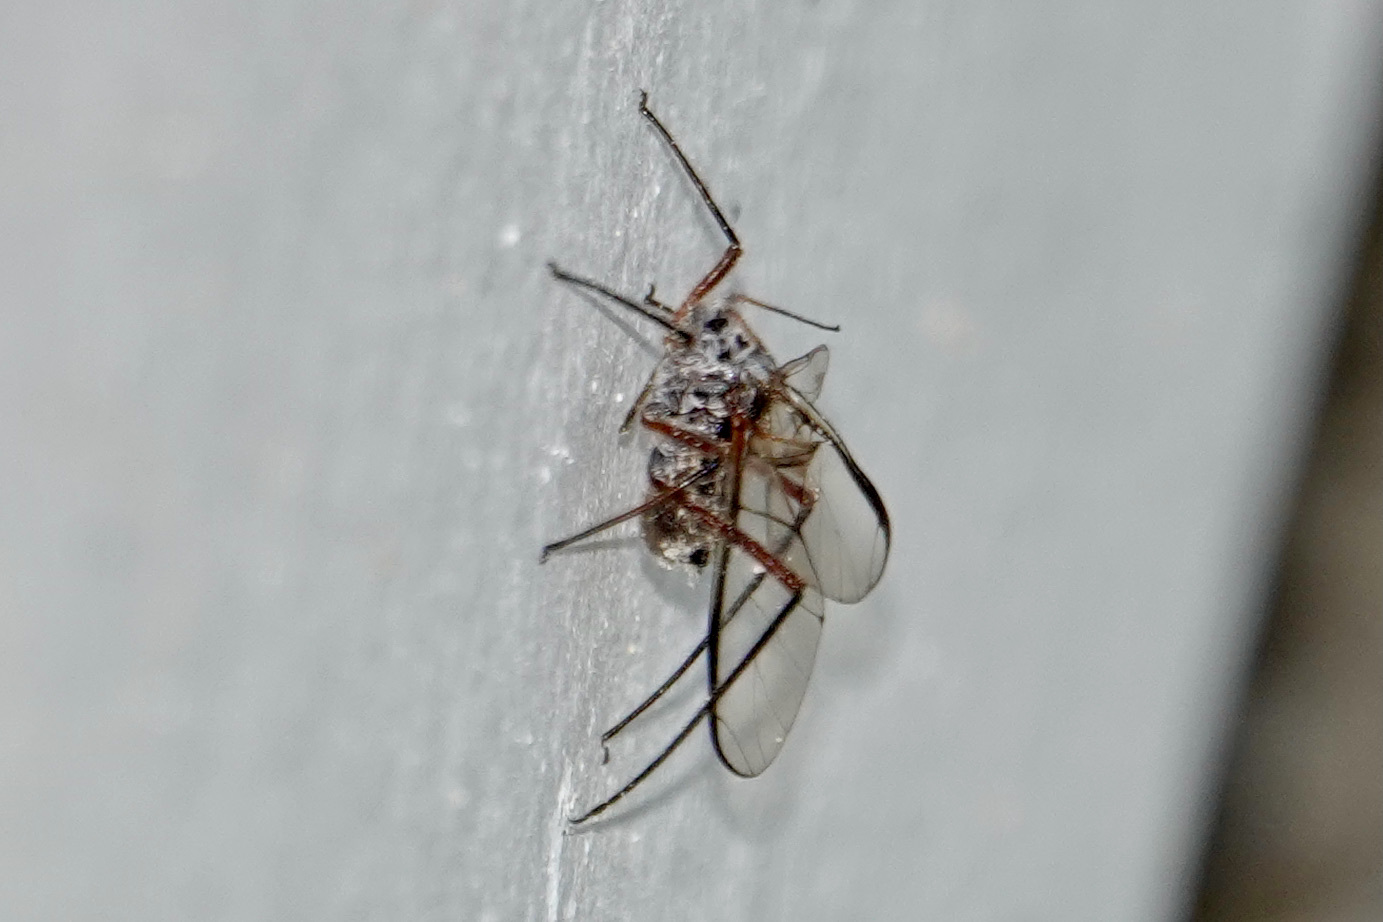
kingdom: Animalia
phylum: Arthropoda
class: Insecta
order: Hemiptera
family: Aphididae
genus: Longistigma
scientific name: Longistigma caryae
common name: Giant bark aphid
